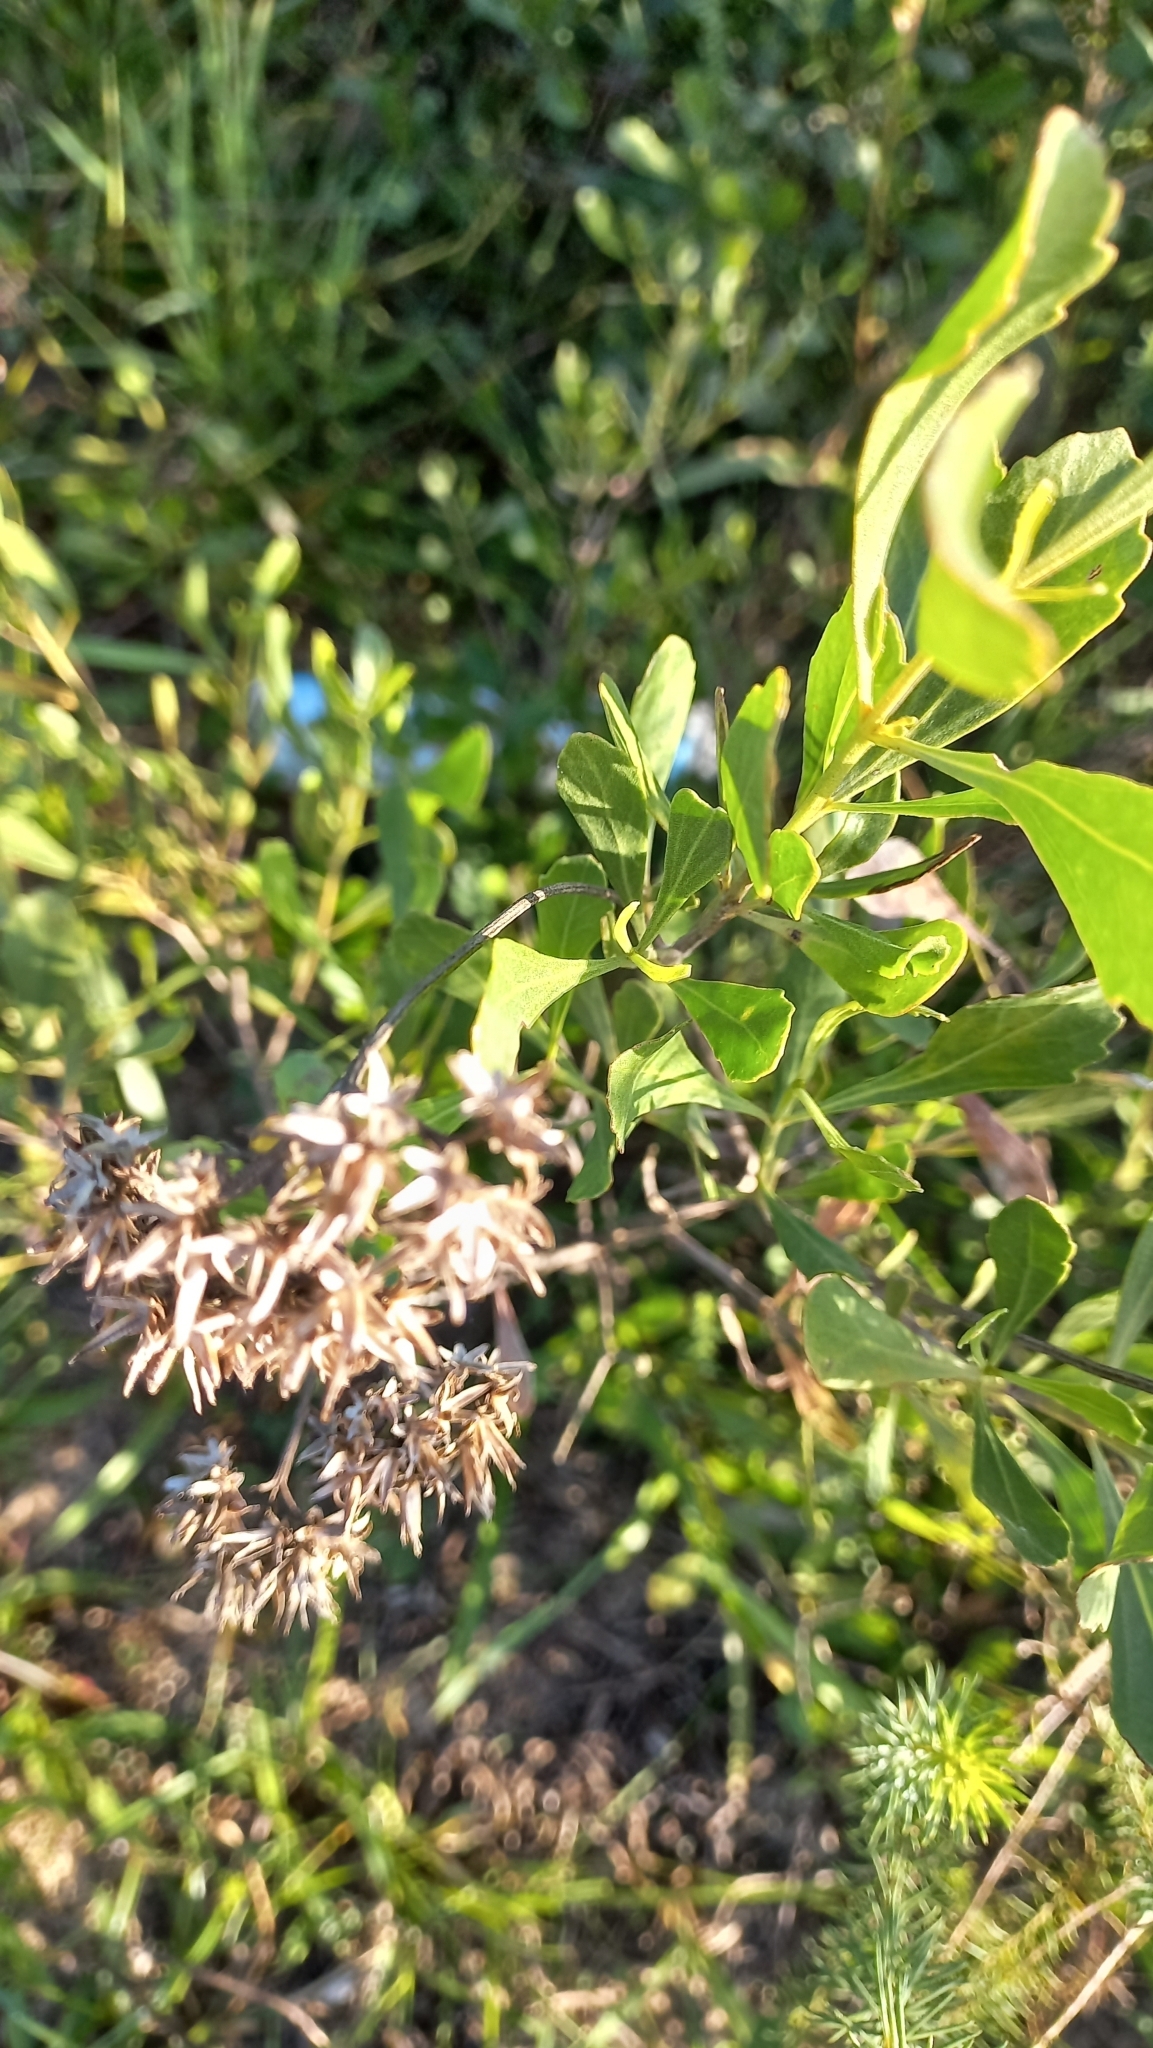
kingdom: Plantae
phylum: Tracheophyta
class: Magnoliopsida
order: Asterales
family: Asteraceae
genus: Symphyopappus
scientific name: Symphyopappus casarettoi
